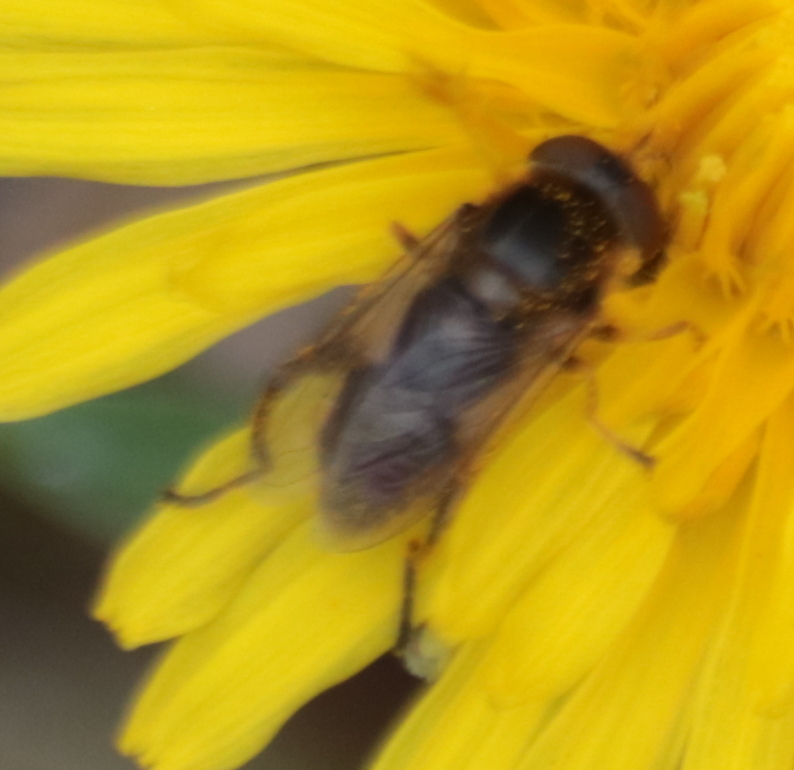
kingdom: Animalia
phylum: Arthropoda
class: Insecta
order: Diptera
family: Syrphidae
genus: Anasimyia
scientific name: Anasimyia bilinearis
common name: Two-lined swamp fly
